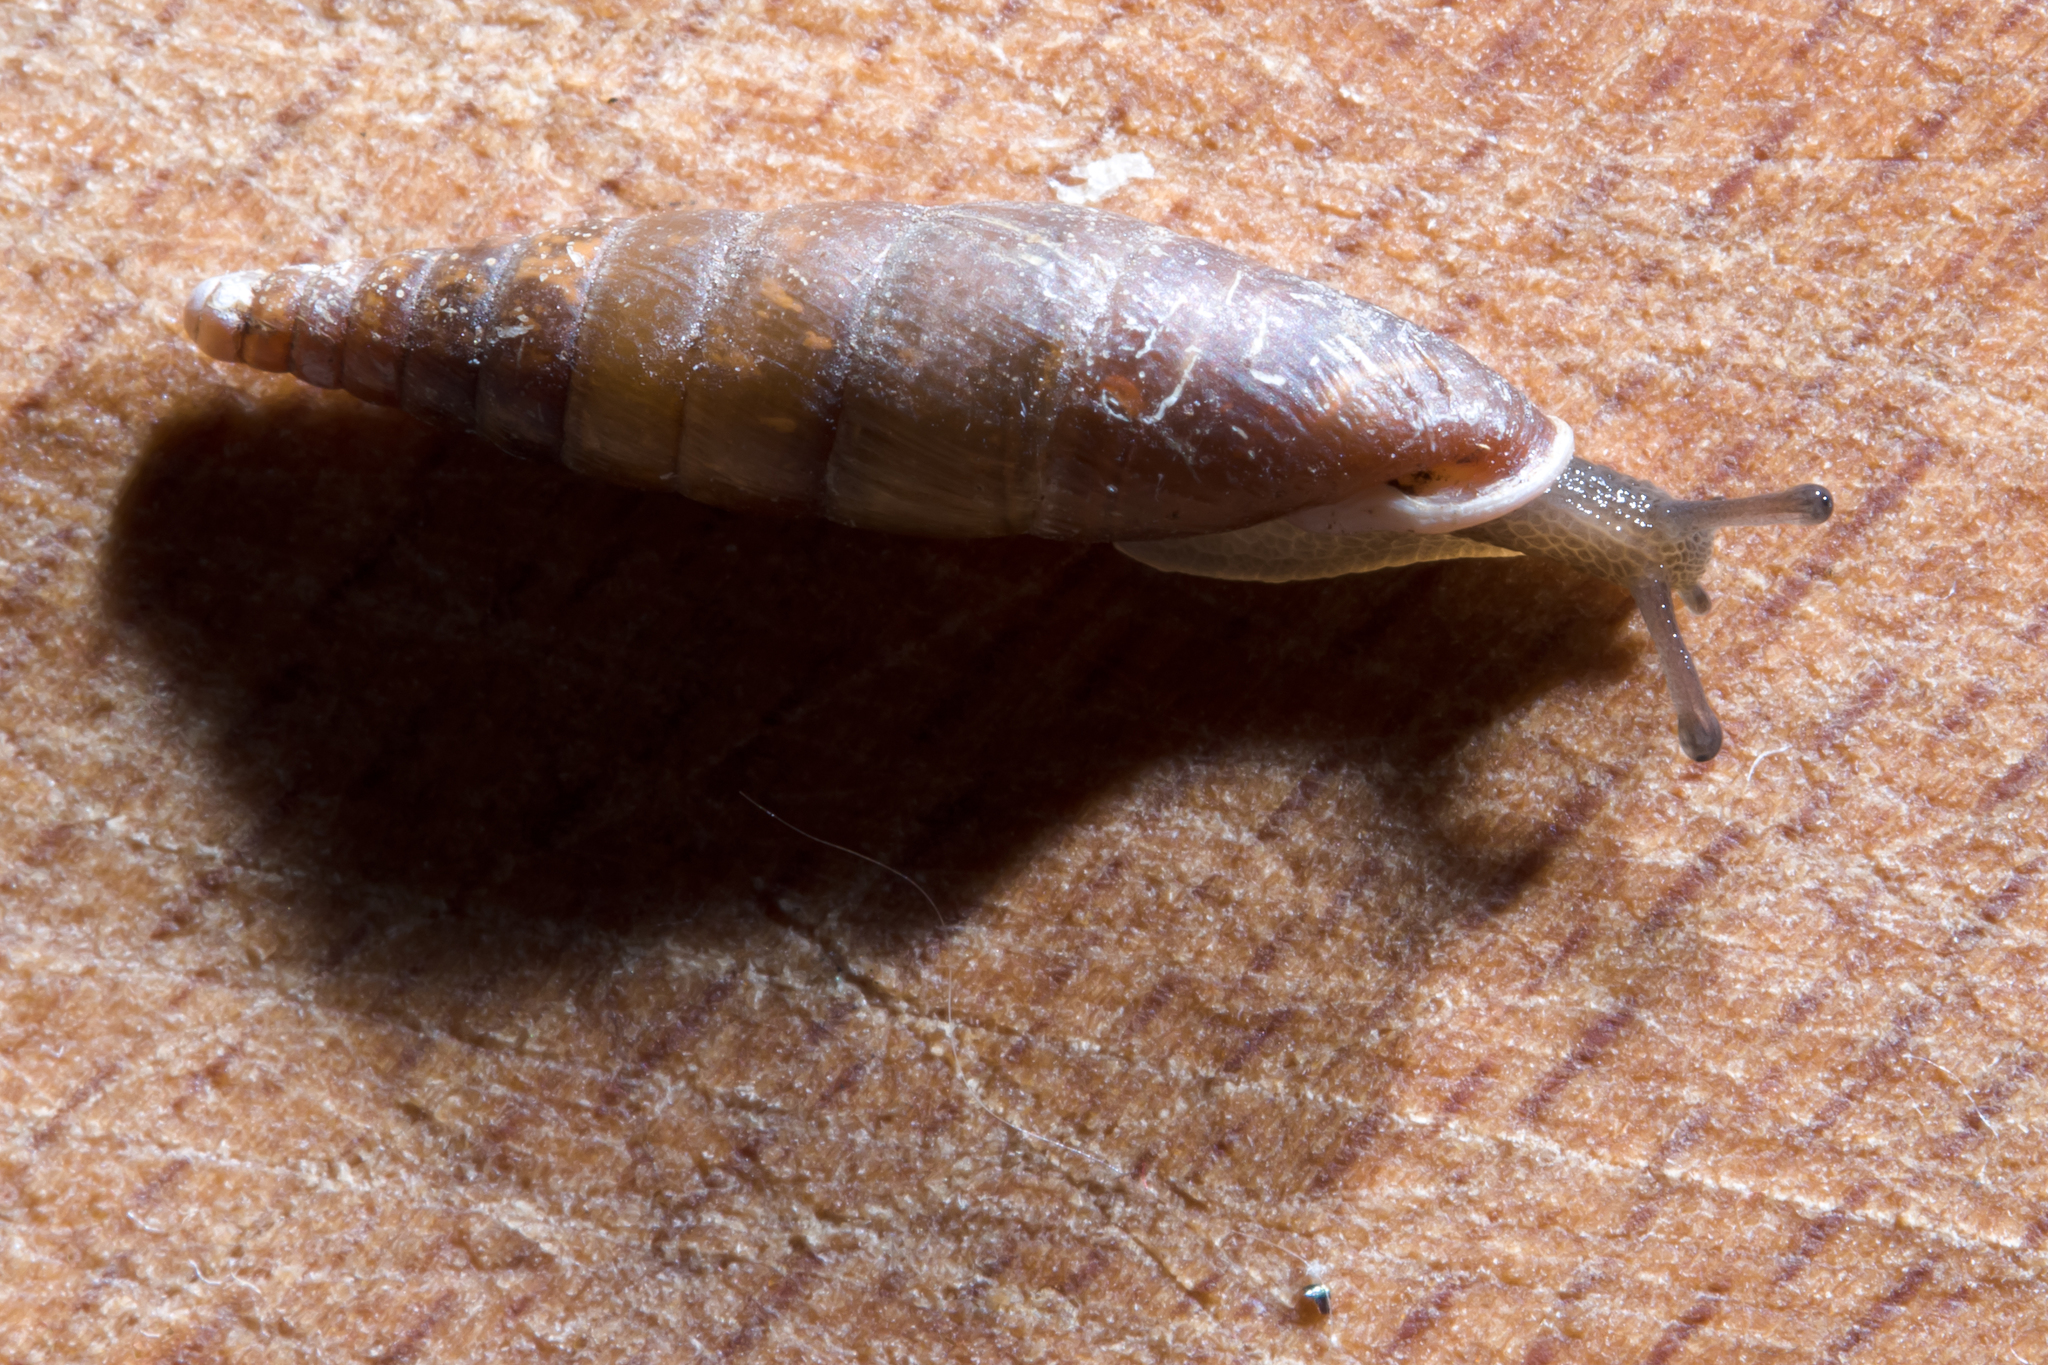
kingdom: Animalia
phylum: Mollusca
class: Gastropoda
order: Stylommatophora
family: Clausiliidae
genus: Cochlodina
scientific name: Cochlodina laminata
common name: Plaited door snail
